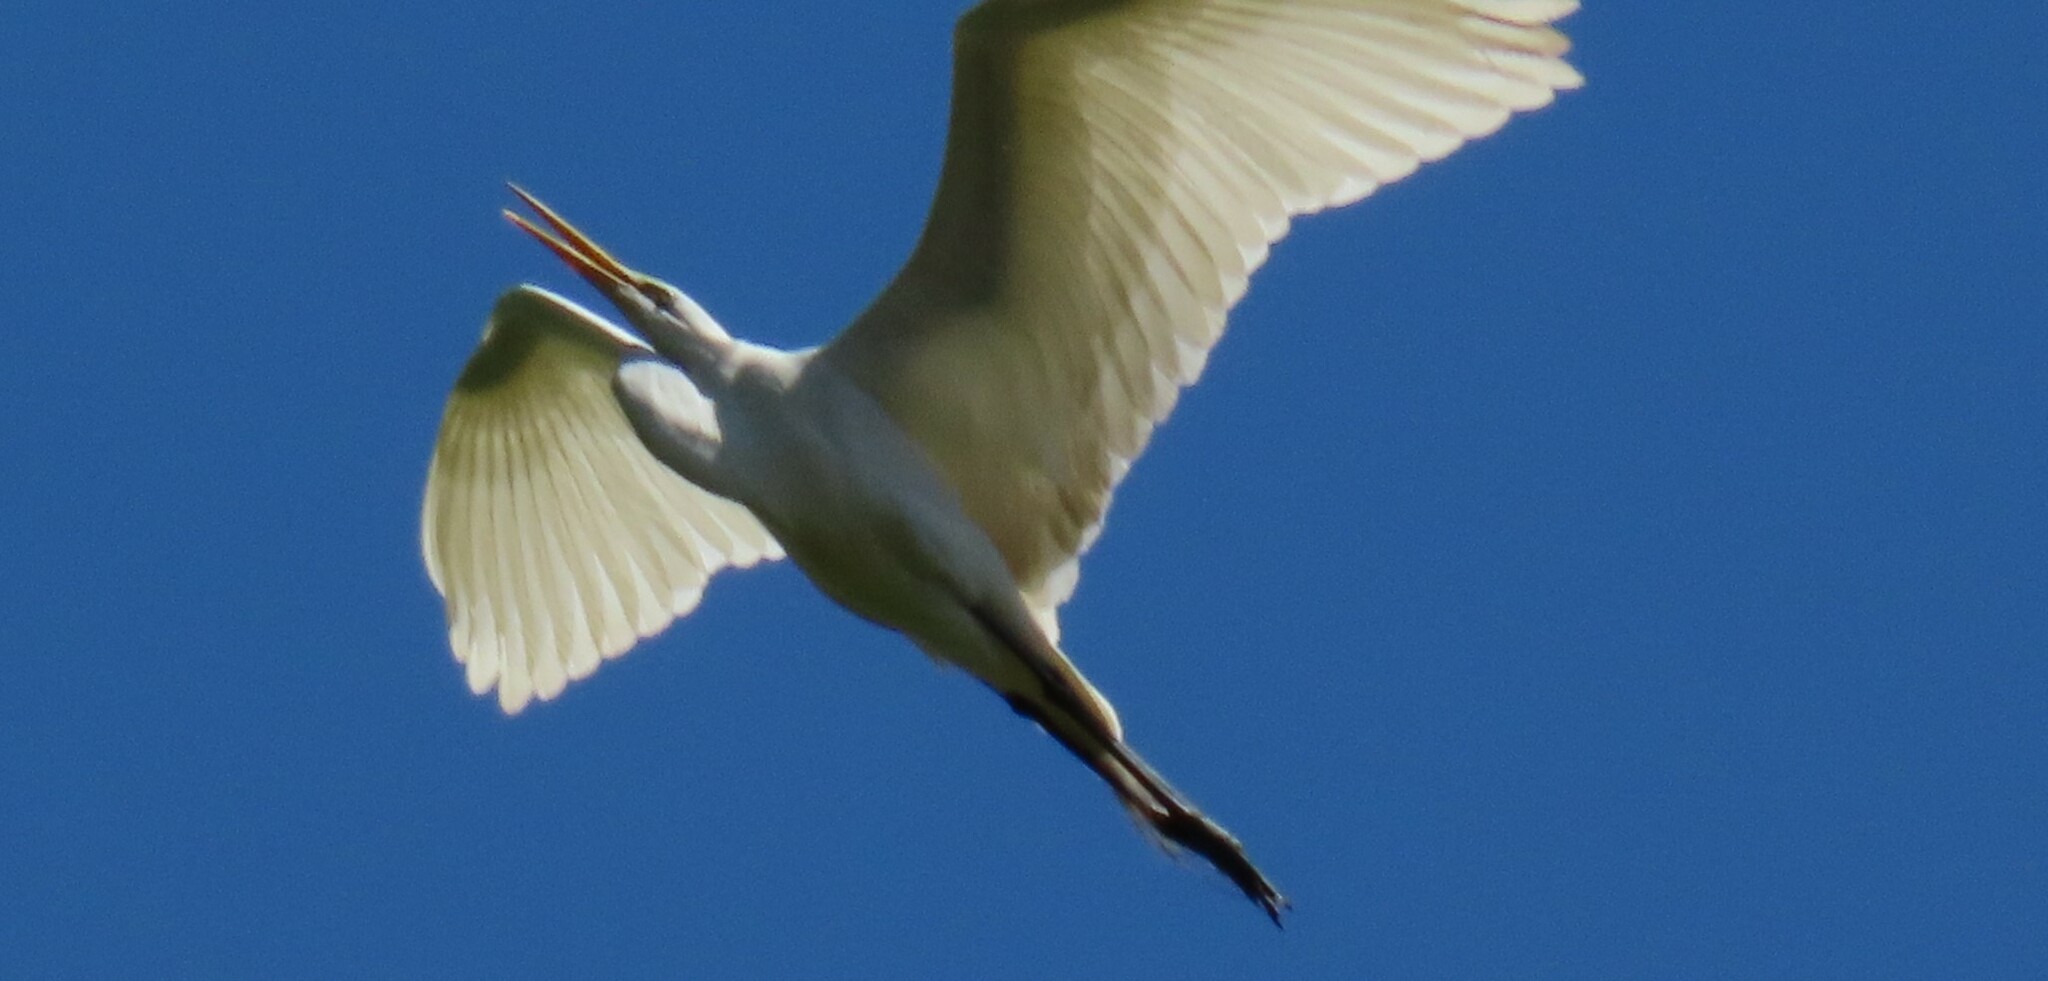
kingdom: Animalia
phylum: Chordata
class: Aves
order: Pelecaniformes
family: Ardeidae
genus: Ardea
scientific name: Ardea alba
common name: Great egret
